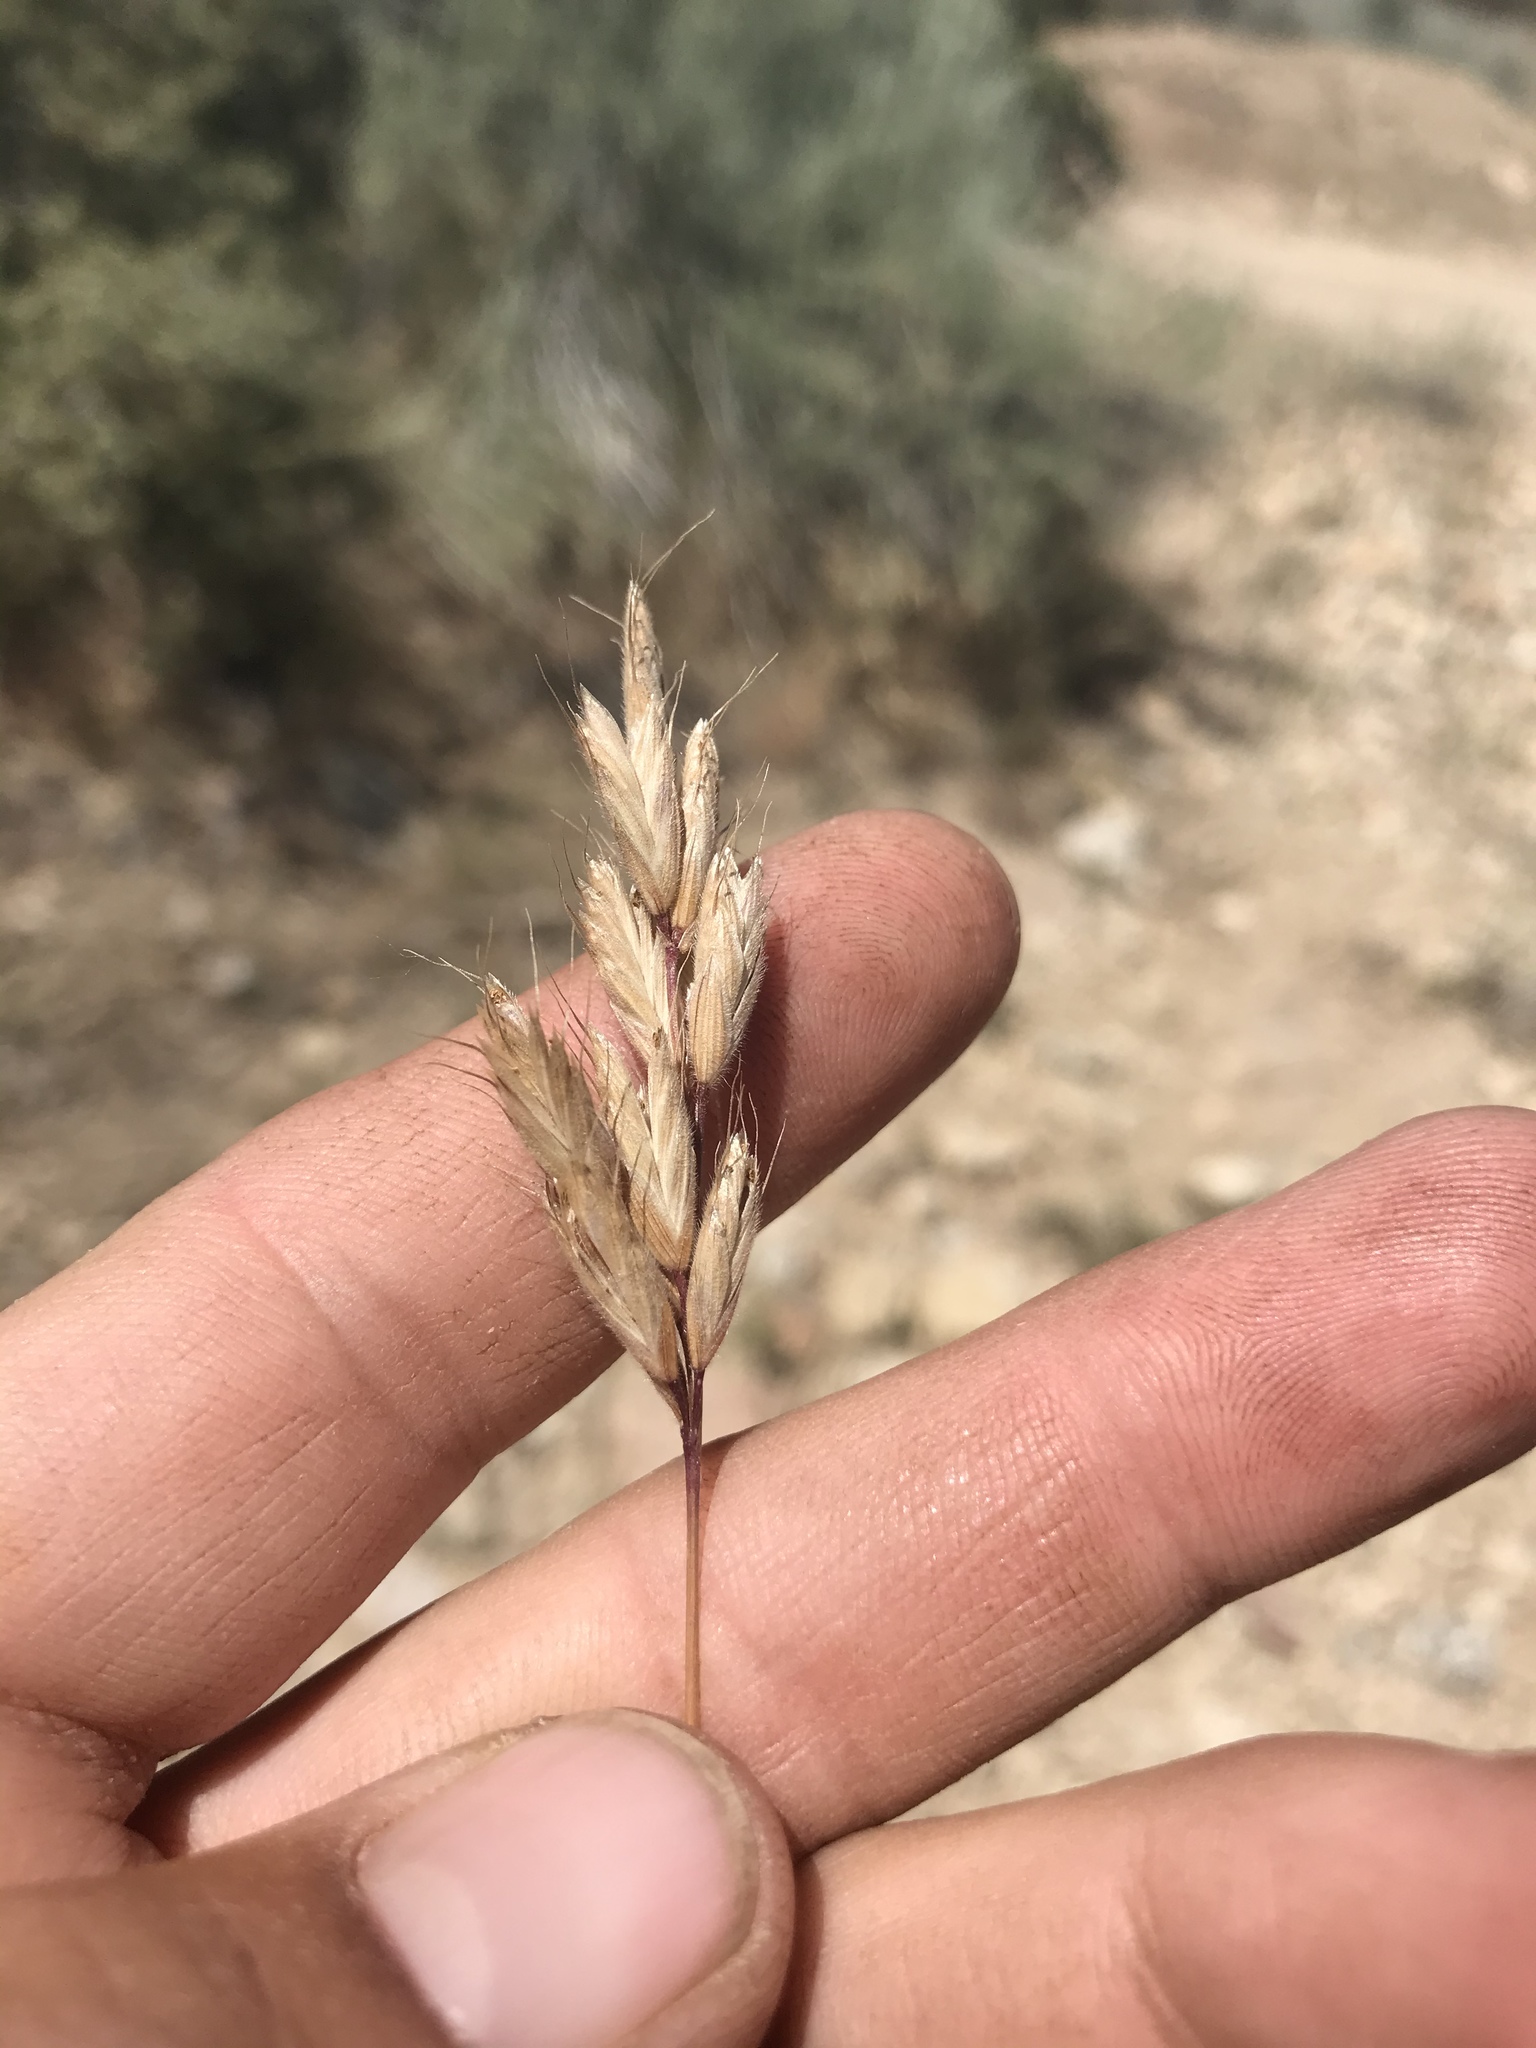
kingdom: Plantae
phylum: Tracheophyta
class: Liliopsida
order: Poales
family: Poaceae
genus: Bromus
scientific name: Bromus hordeaceus
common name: Soft brome
